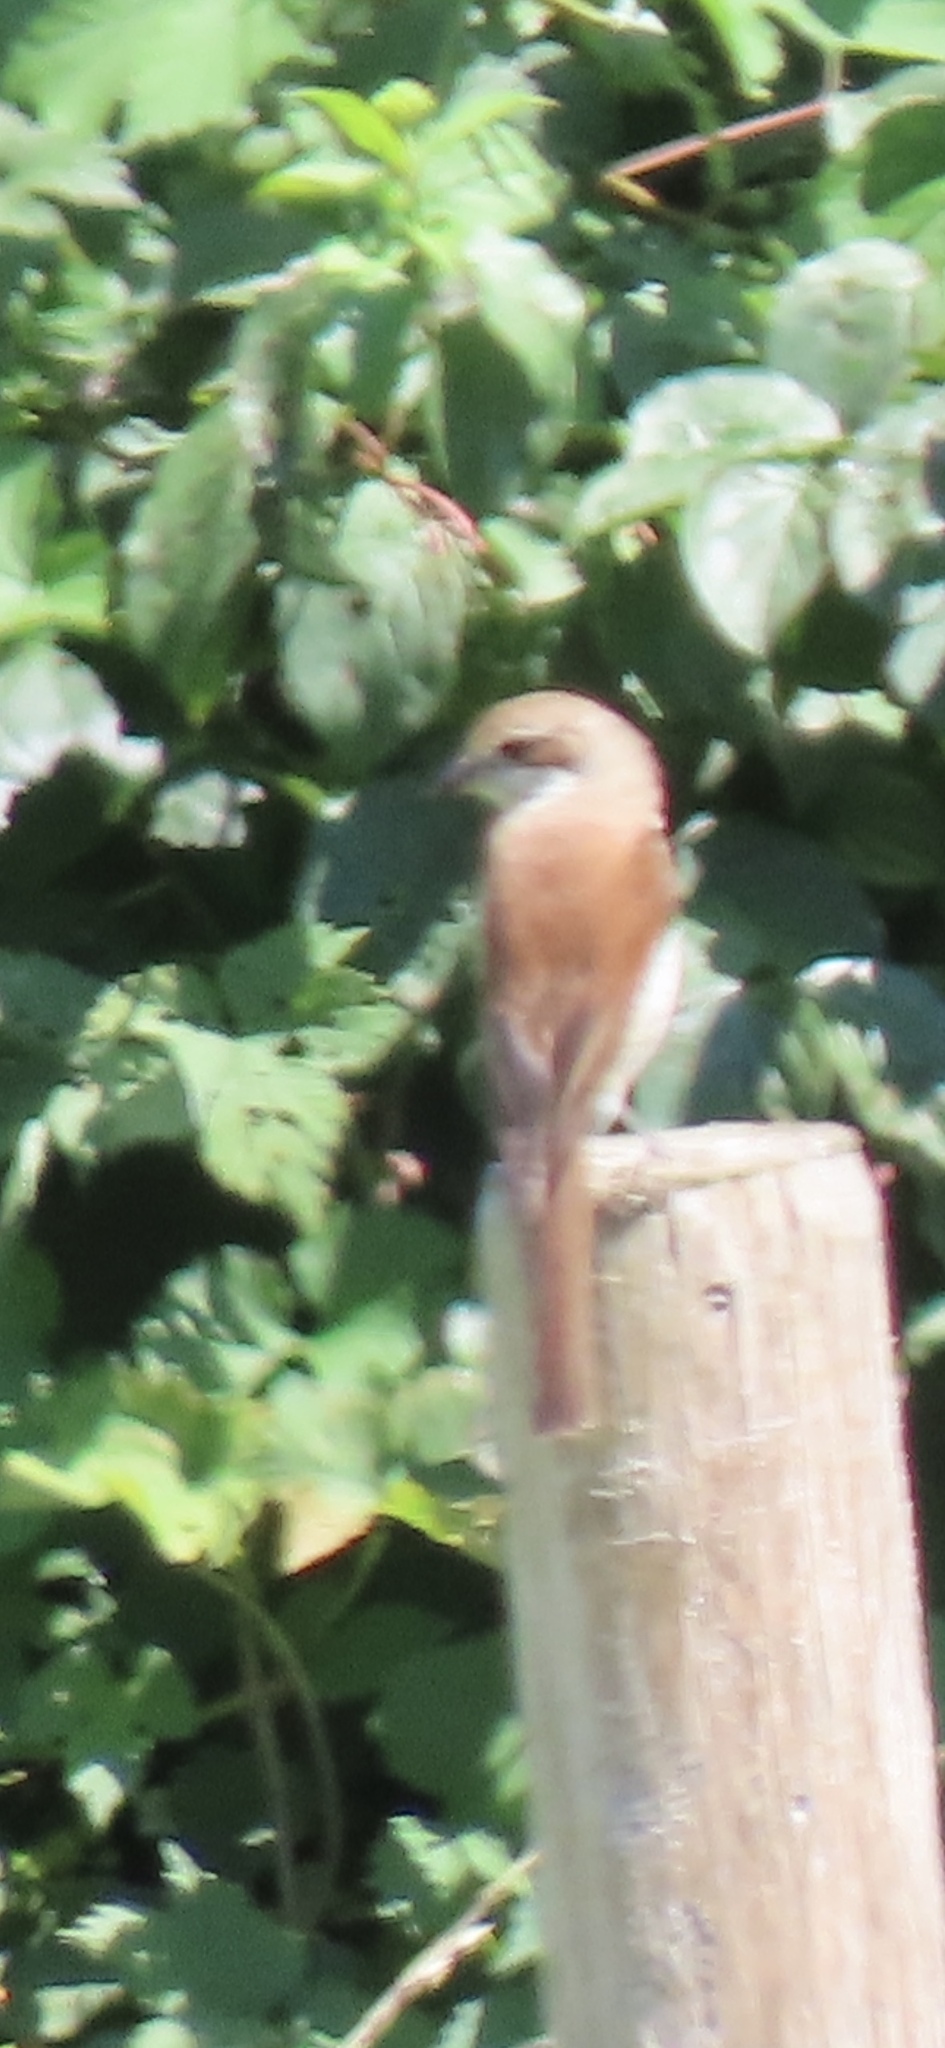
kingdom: Animalia
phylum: Chordata
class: Aves
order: Passeriformes
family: Laniidae
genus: Lanius
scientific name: Lanius collurio
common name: Red-backed shrike
